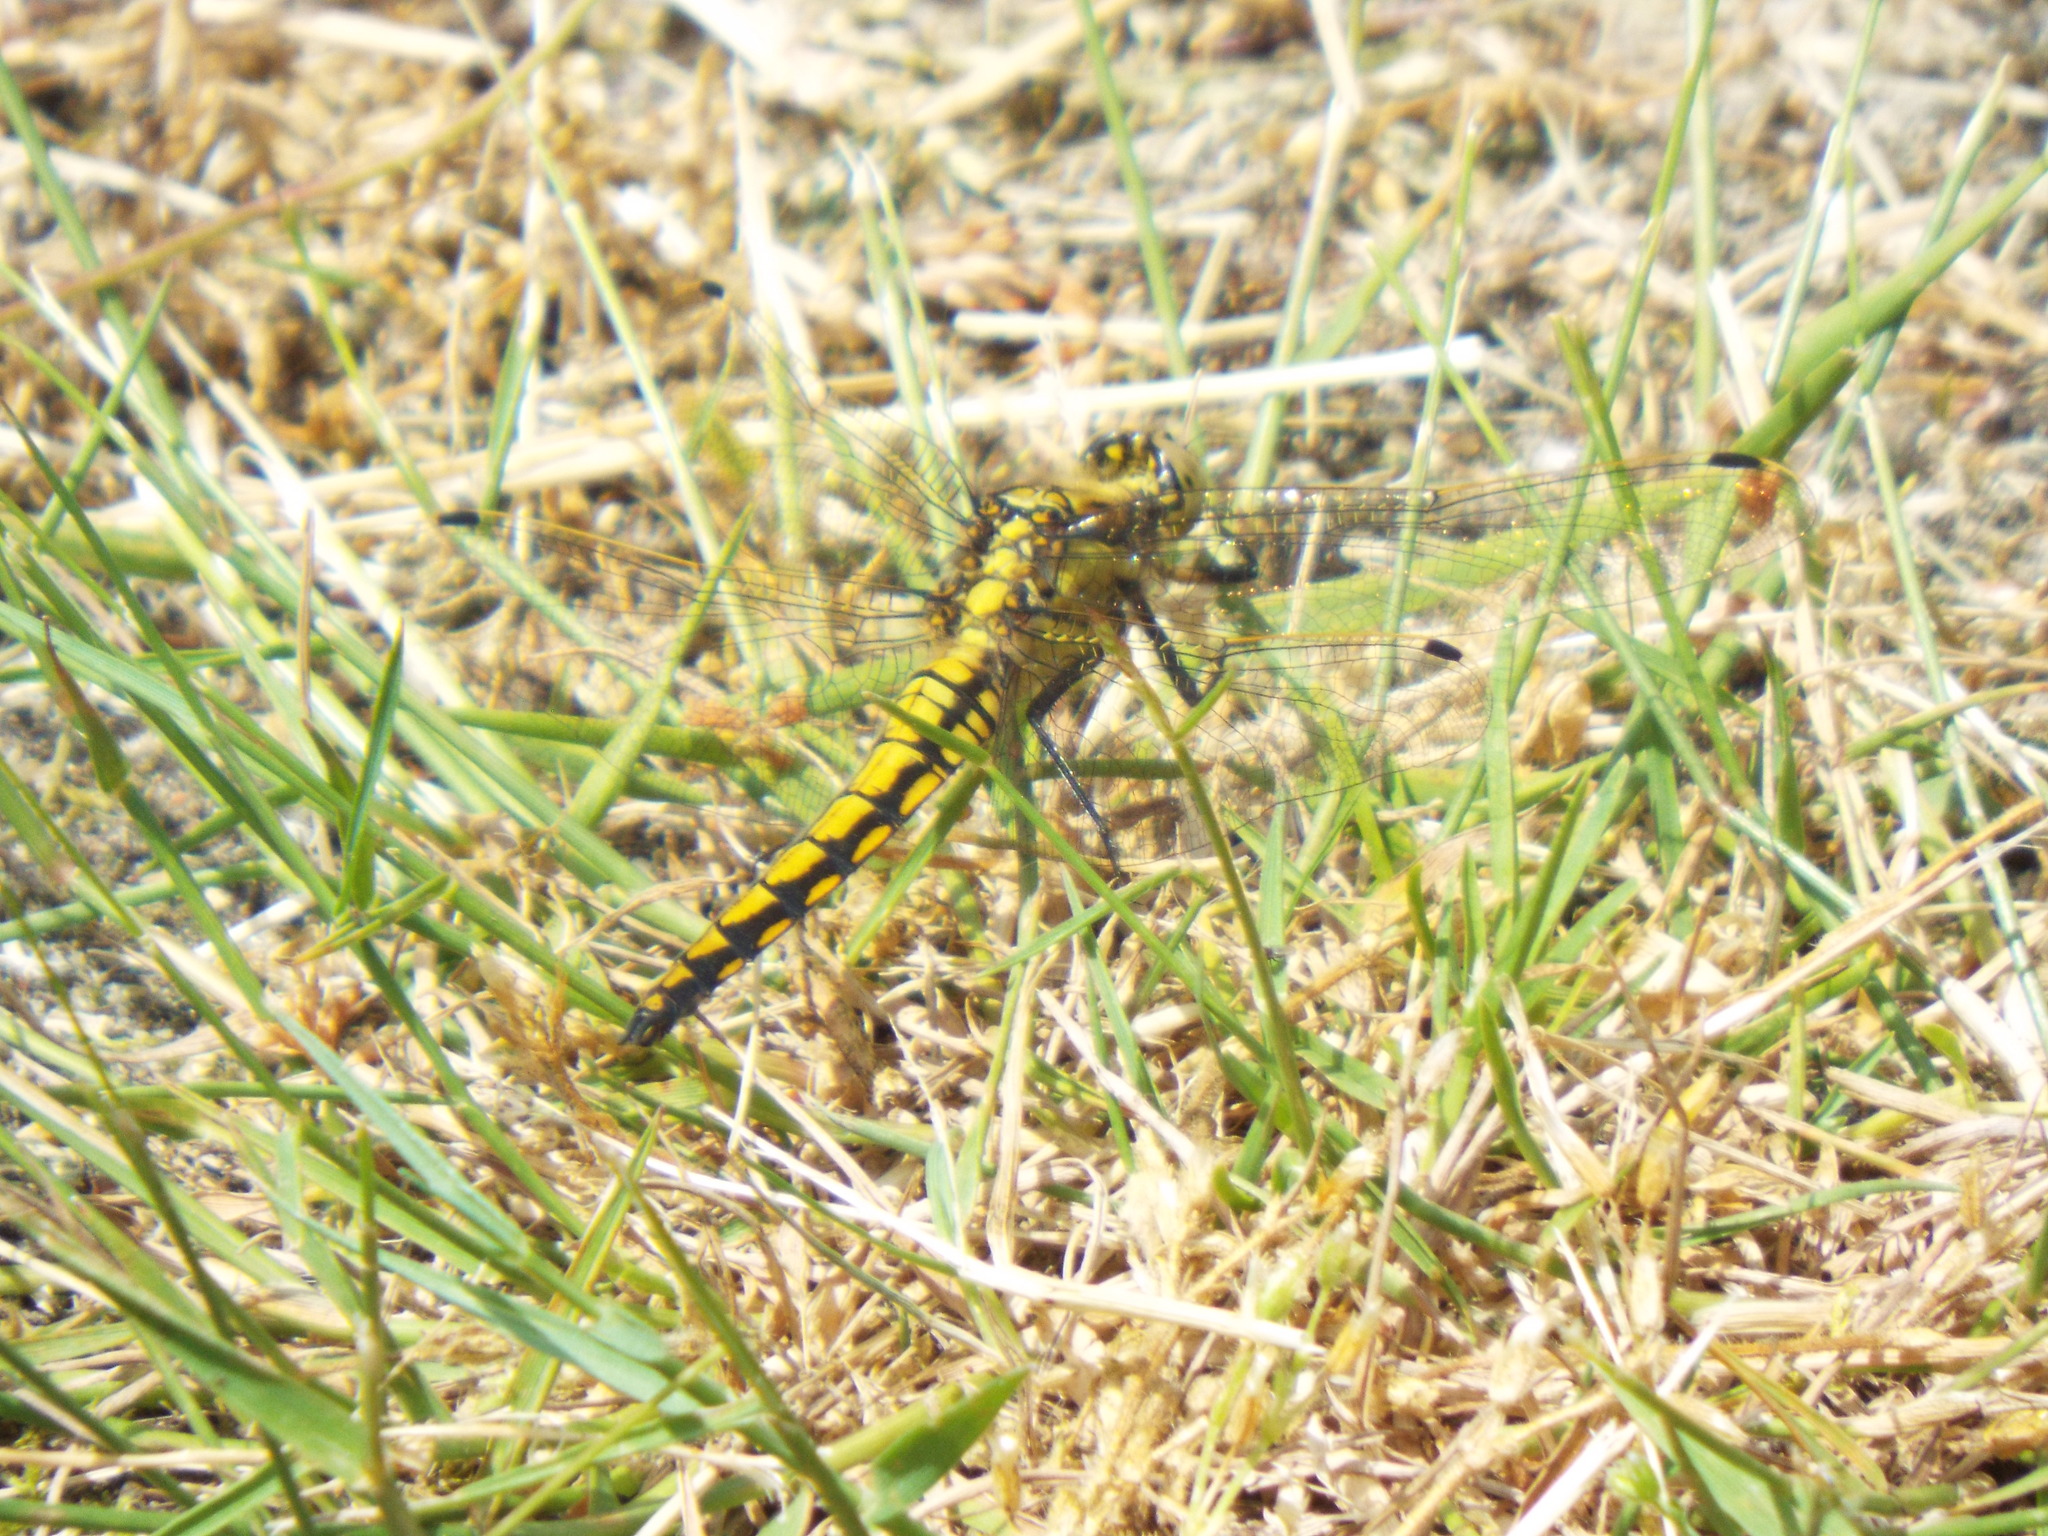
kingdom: Animalia
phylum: Arthropoda
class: Insecta
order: Odonata
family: Libellulidae
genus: Orthetrum
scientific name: Orthetrum cancellatum
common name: Black-tailed skimmer
